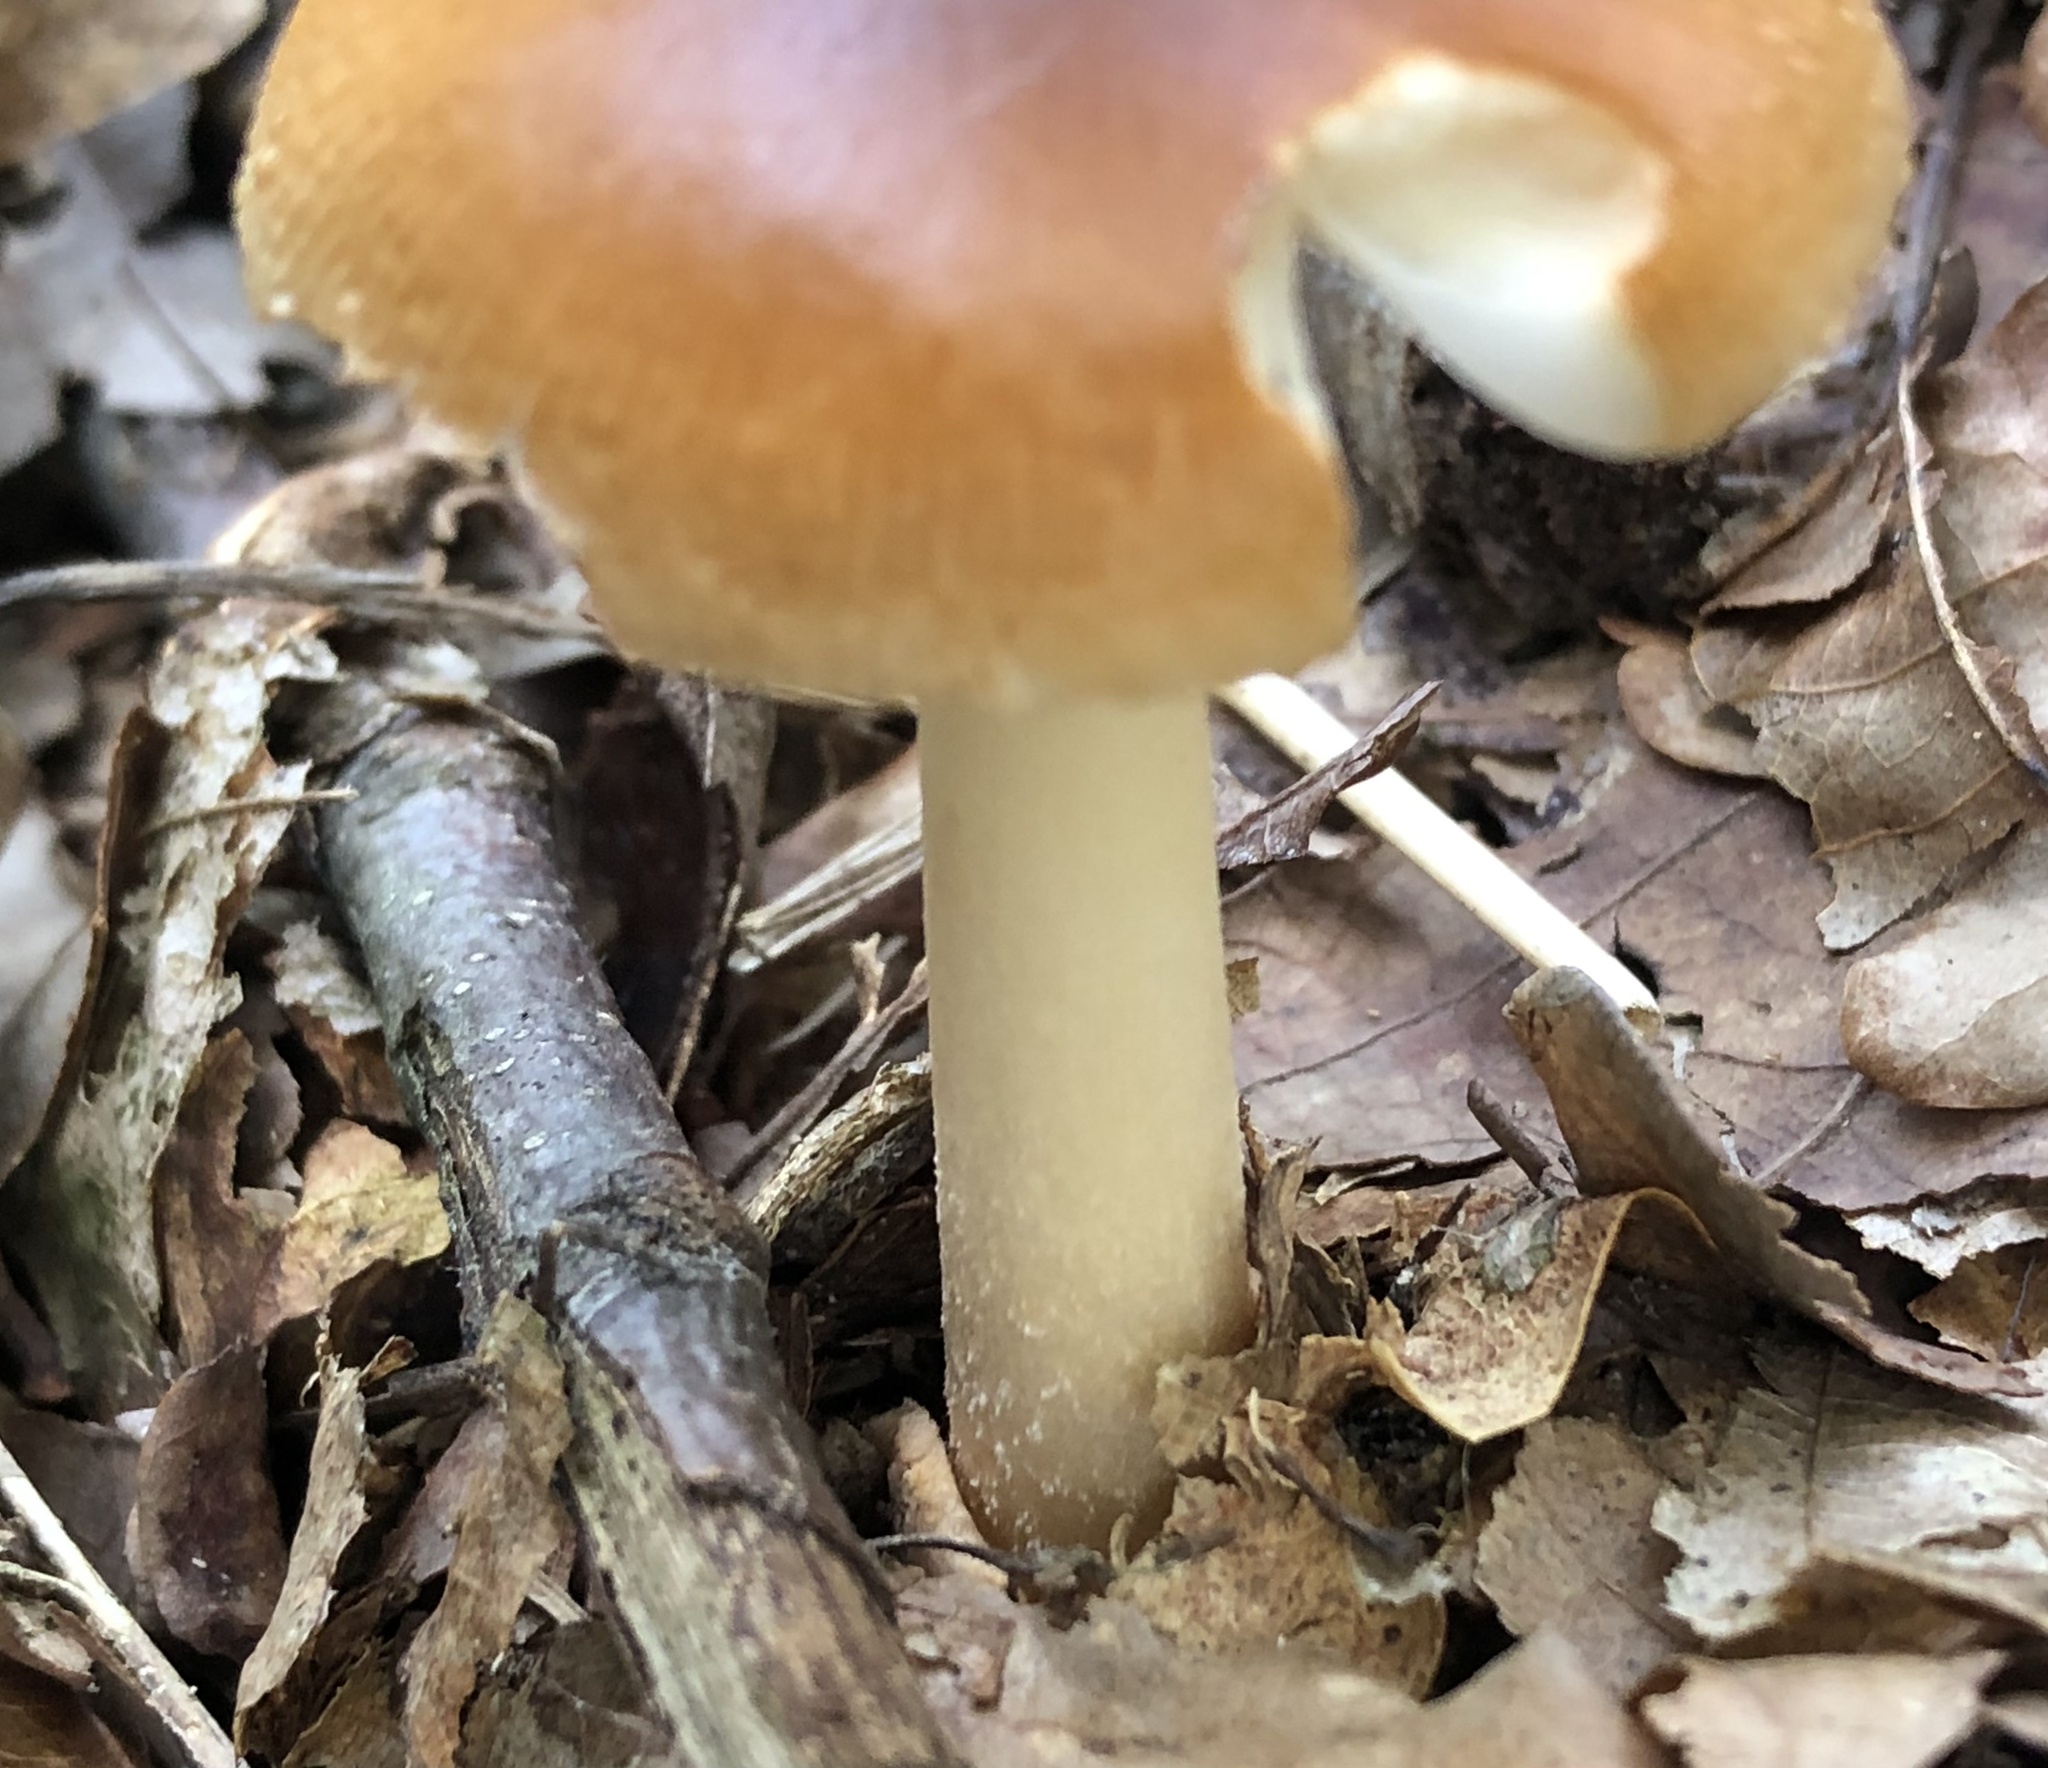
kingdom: Fungi
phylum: Basidiomycota
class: Agaricomycetes
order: Agaricales
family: Amanitaceae
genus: Amanita
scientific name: Amanita fulva
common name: Tawny grisette
